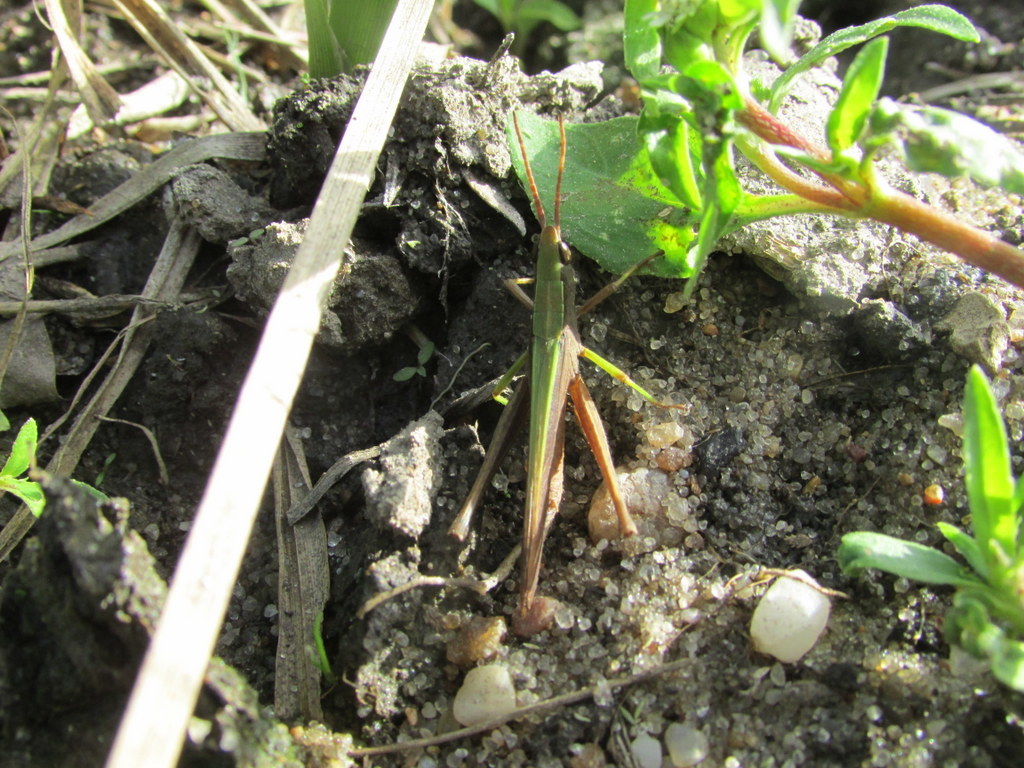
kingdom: Animalia
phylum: Arthropoda
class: Insecta
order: Orthoptera
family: Acrididae
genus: Metaleptea
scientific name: Metaleptea adspersa
